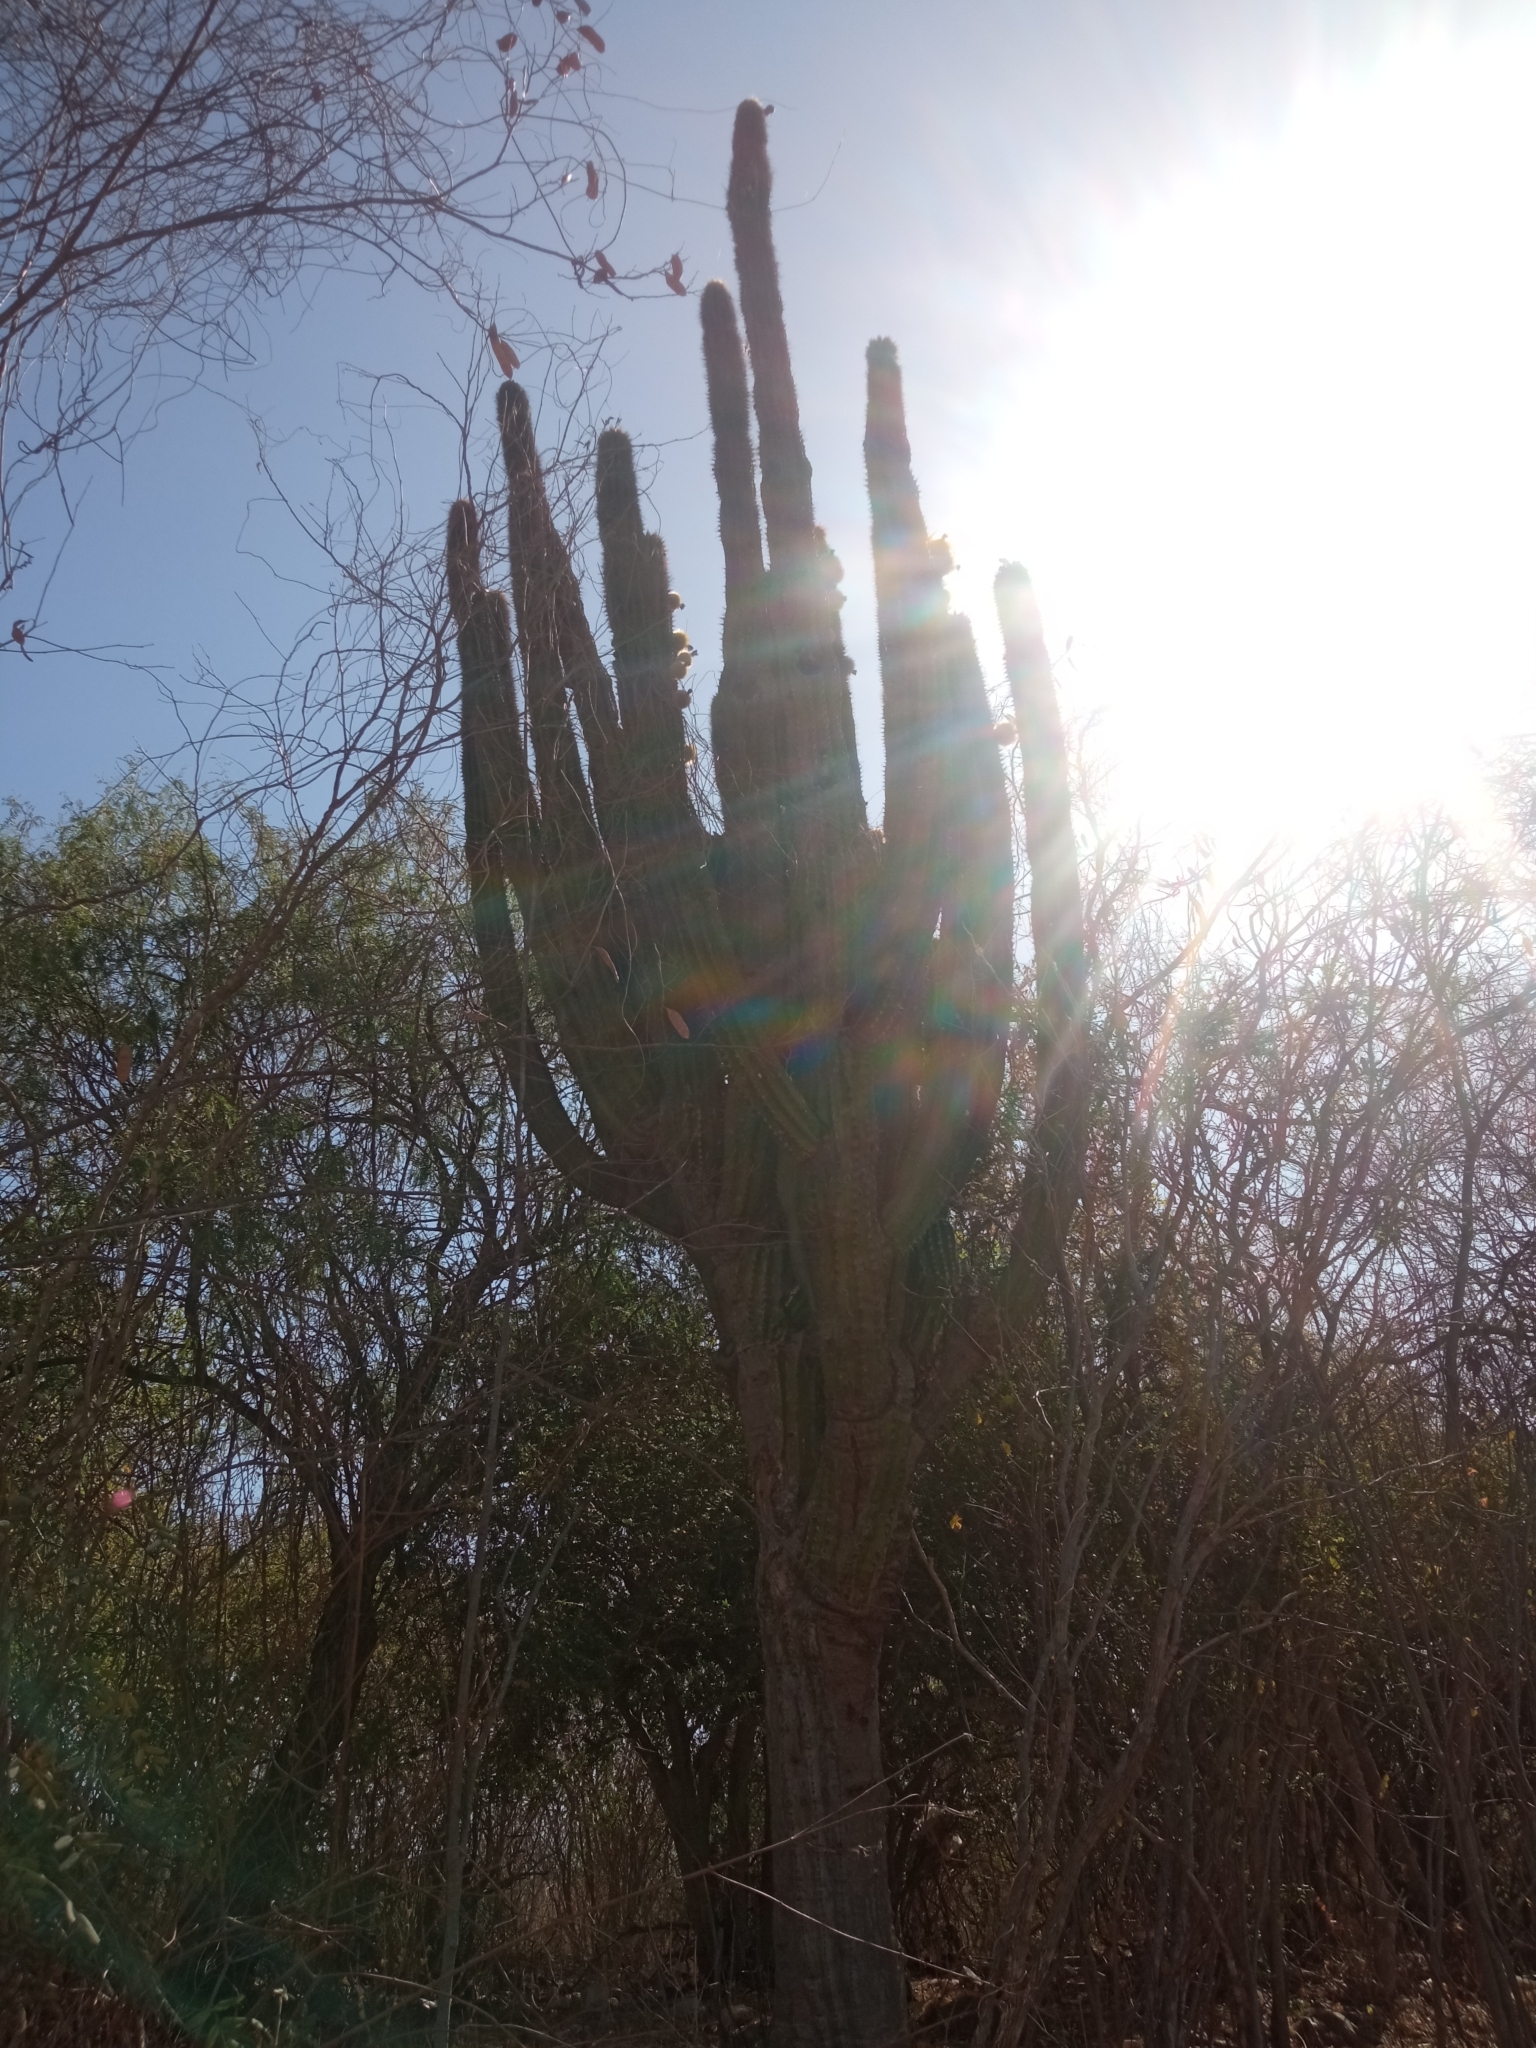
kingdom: Plantae
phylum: Tracheophyta
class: Magnoliopsida
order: Caryophyllales
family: Cactaceae
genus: Pachycereus
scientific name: Pachycereus pecten-aboriginum
